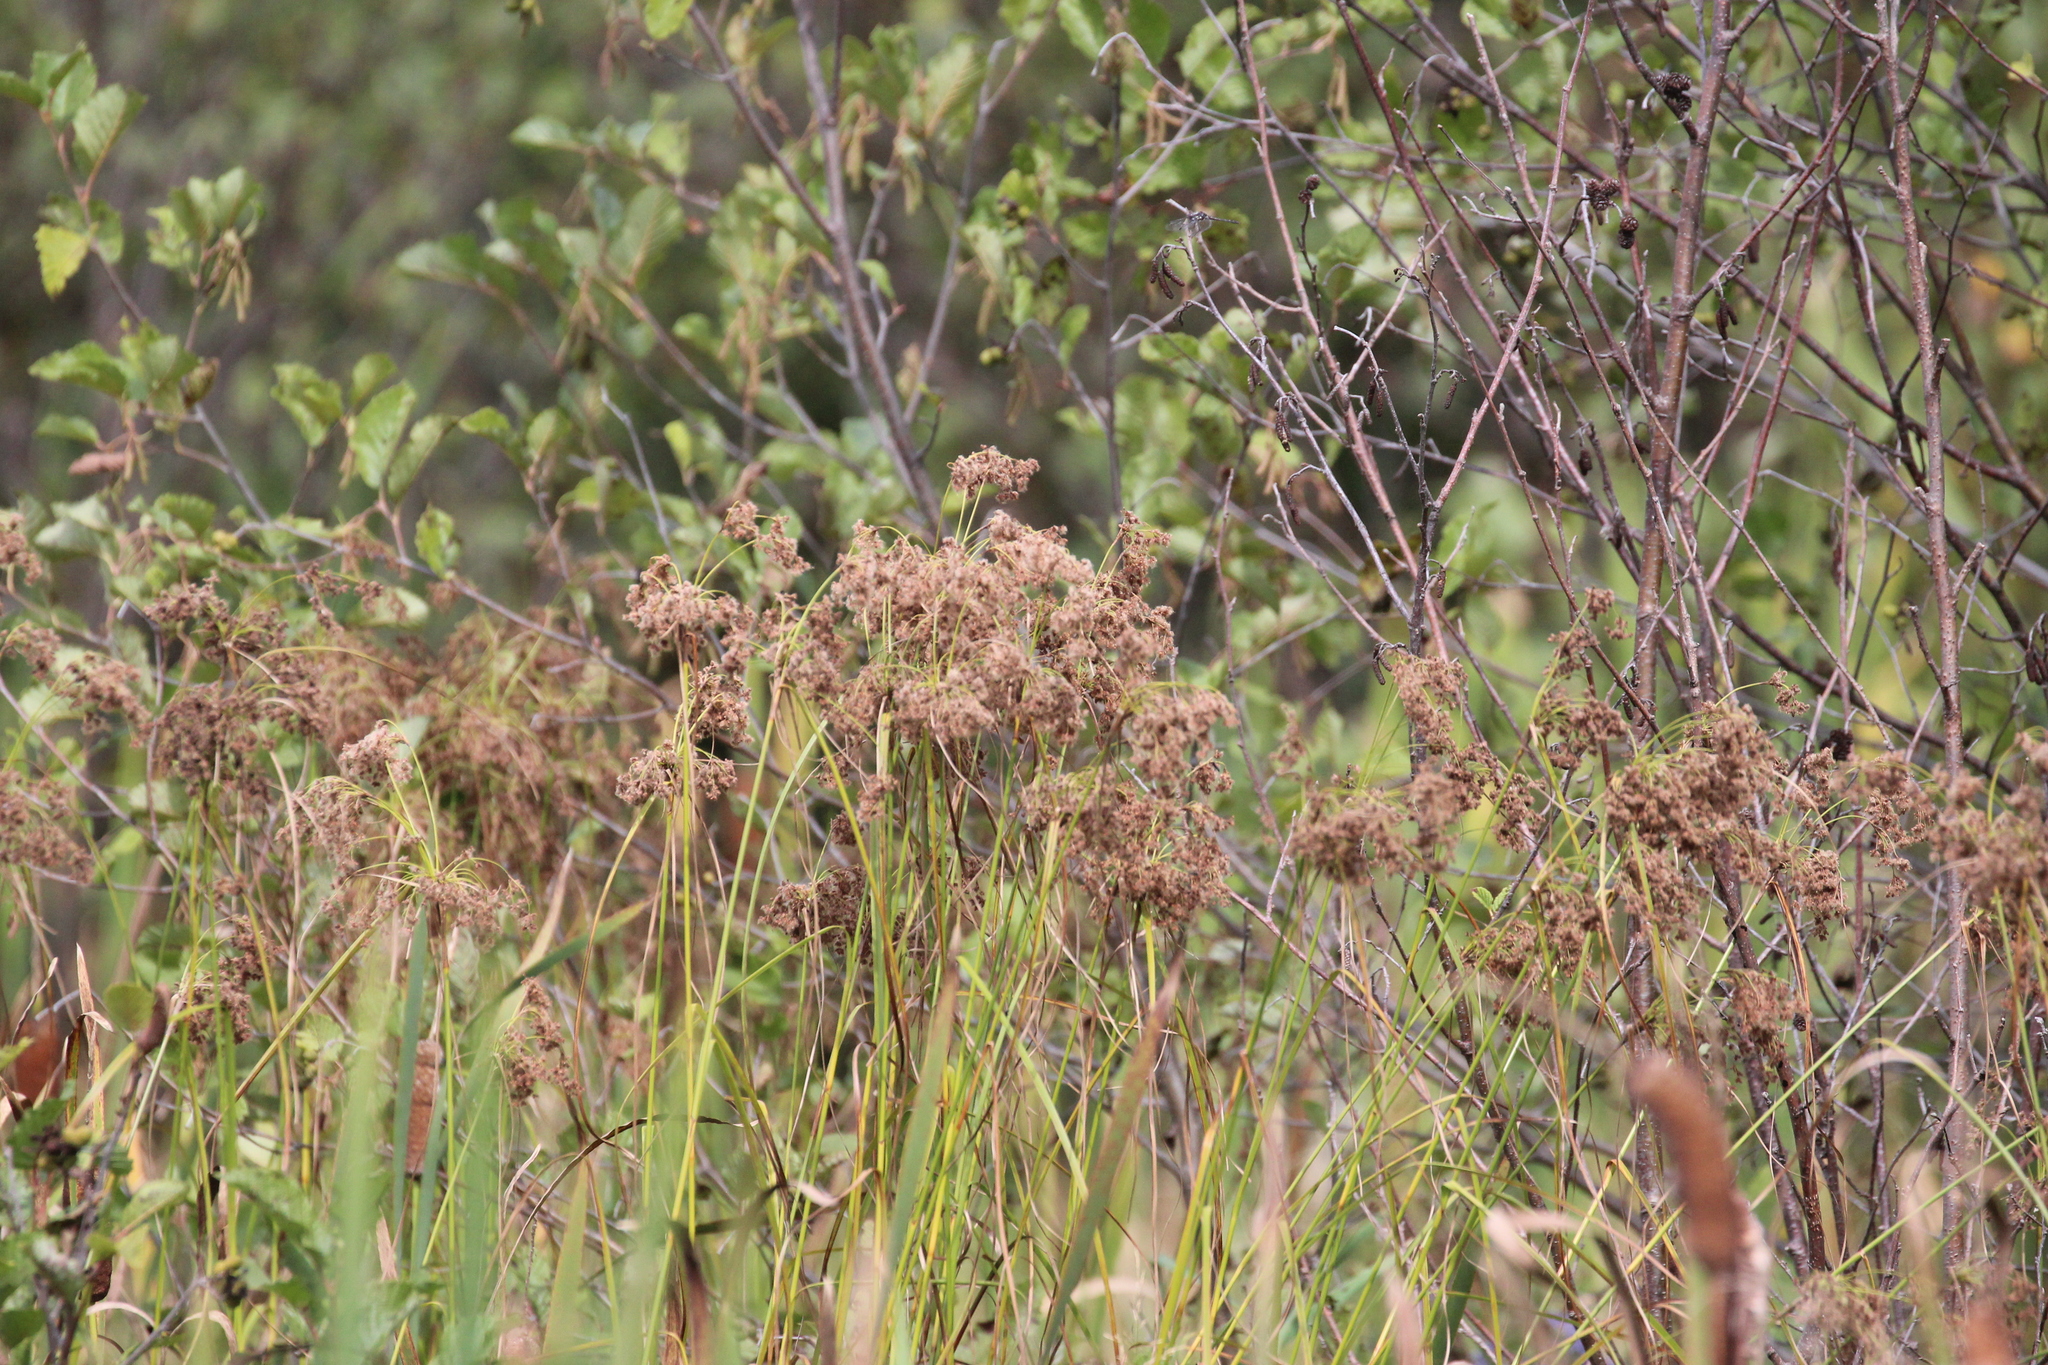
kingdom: Plantae
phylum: Tracheophyta
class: Liliopsida
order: Poales
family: Cyperaceae
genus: Scirpus
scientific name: Scirpus cyperinus
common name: Black-sheathed bulrush
